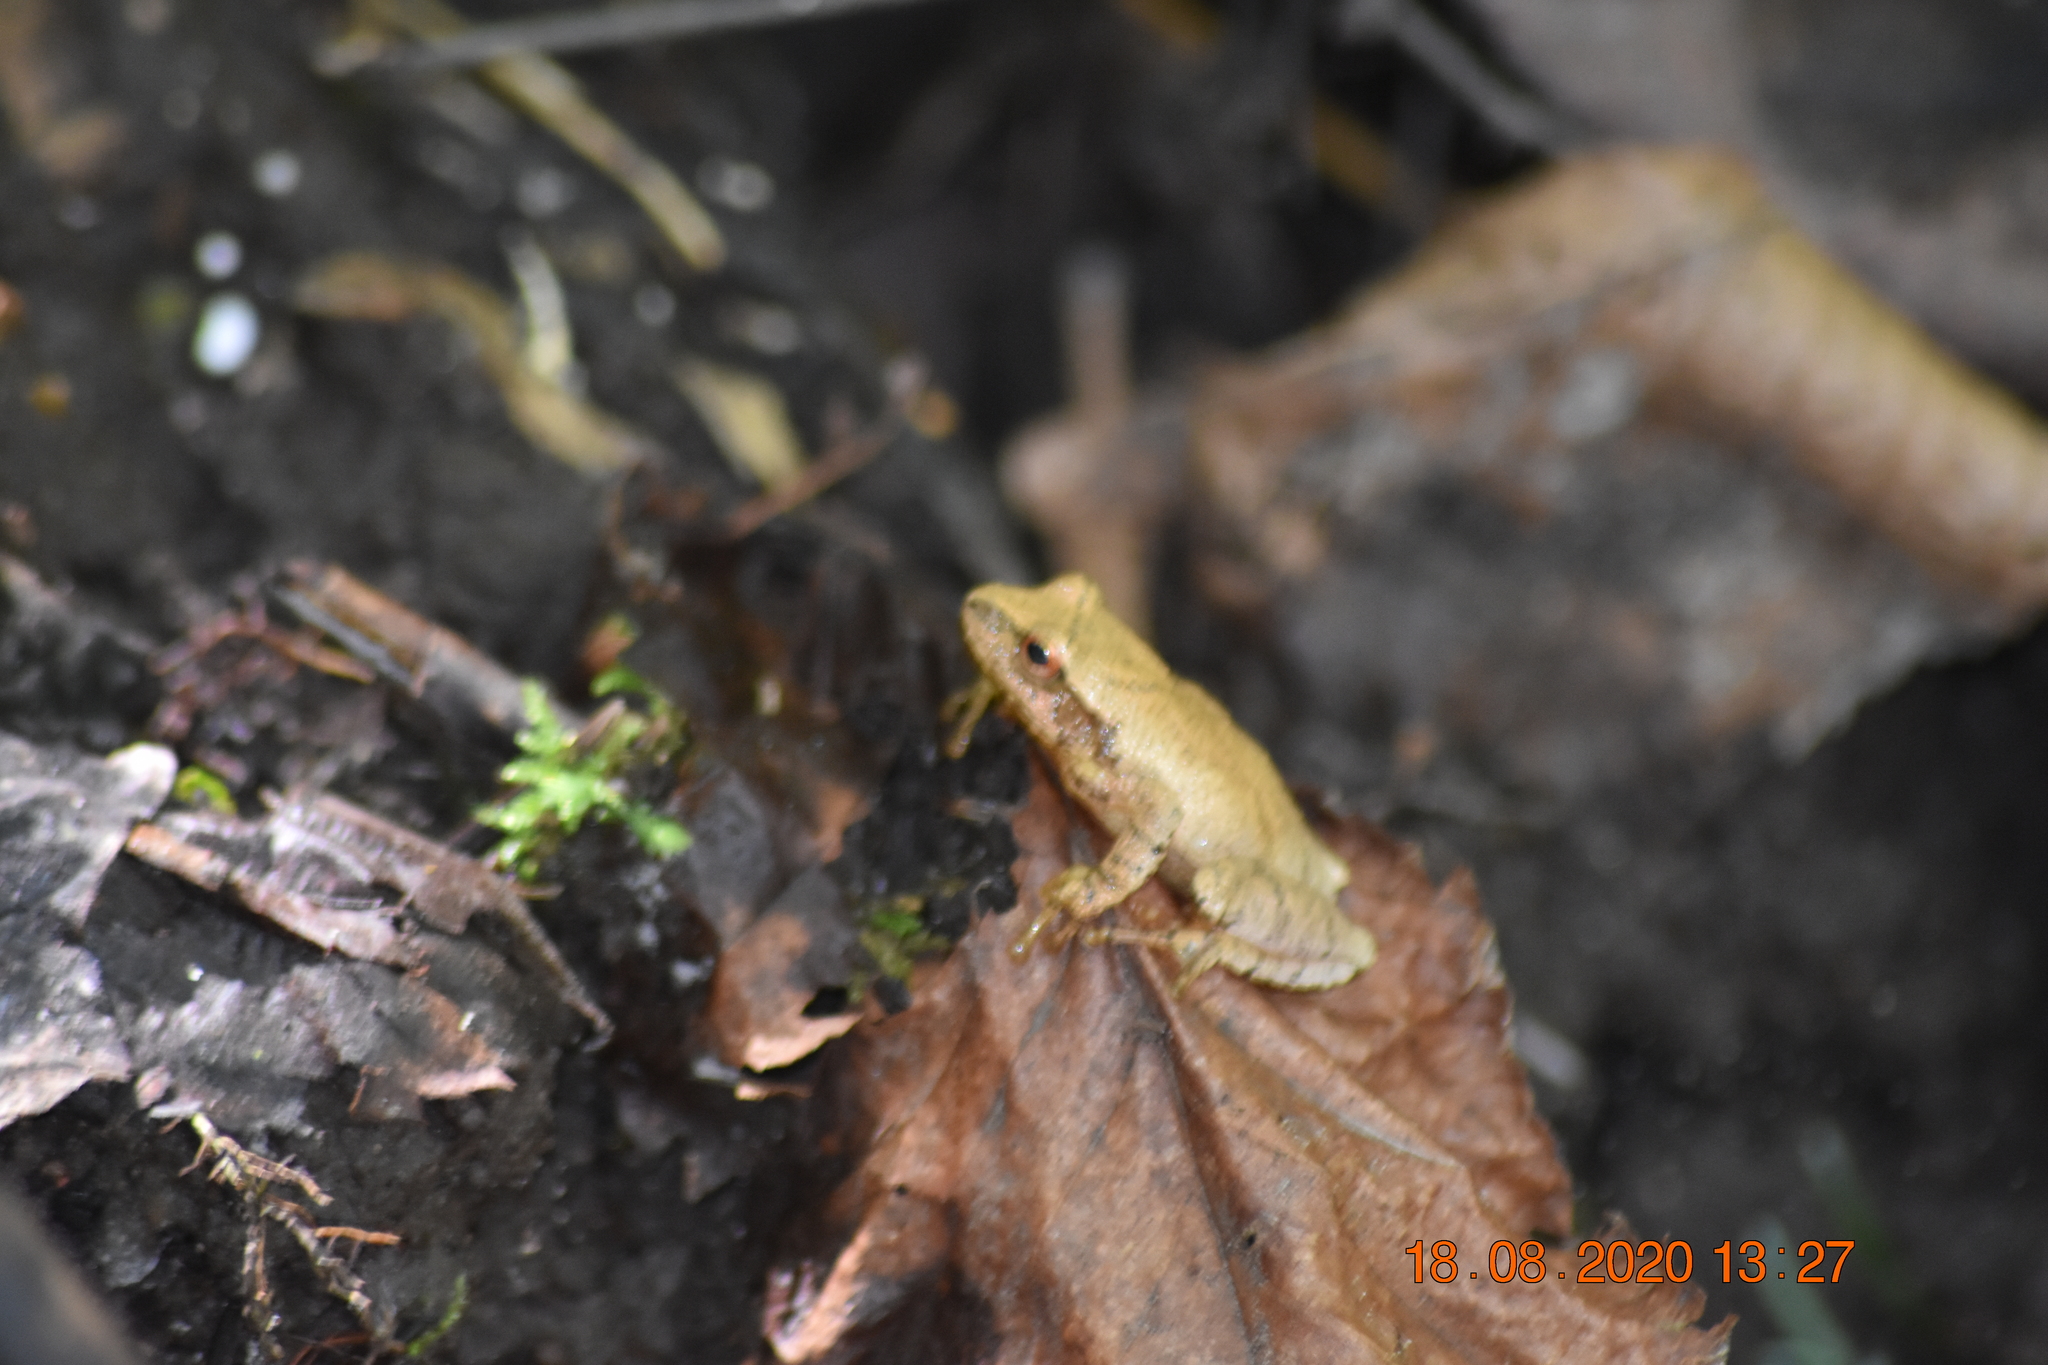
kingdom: Animalia
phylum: Chordata
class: Amphibia
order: Anura
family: Hylidae
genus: Pseudacris
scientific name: Pseudacris crucifer
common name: Spring peeper
